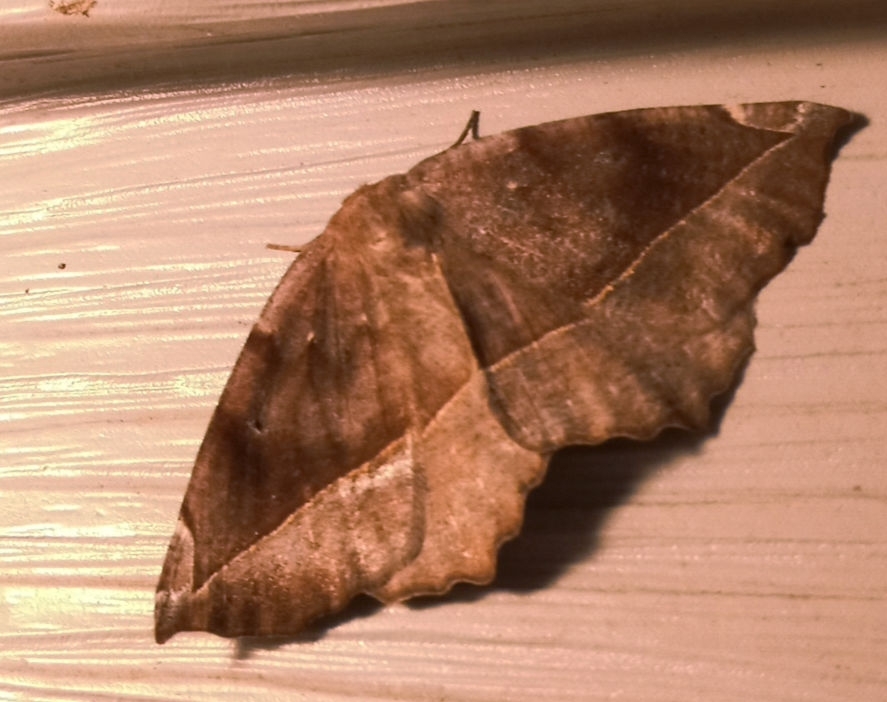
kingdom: Animalia
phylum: Arthropoda
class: Insecta
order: Lepidoptera
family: Geometridae
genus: Eutrapela
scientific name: Eutrapela clemataria
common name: Curved-toothed geometer
